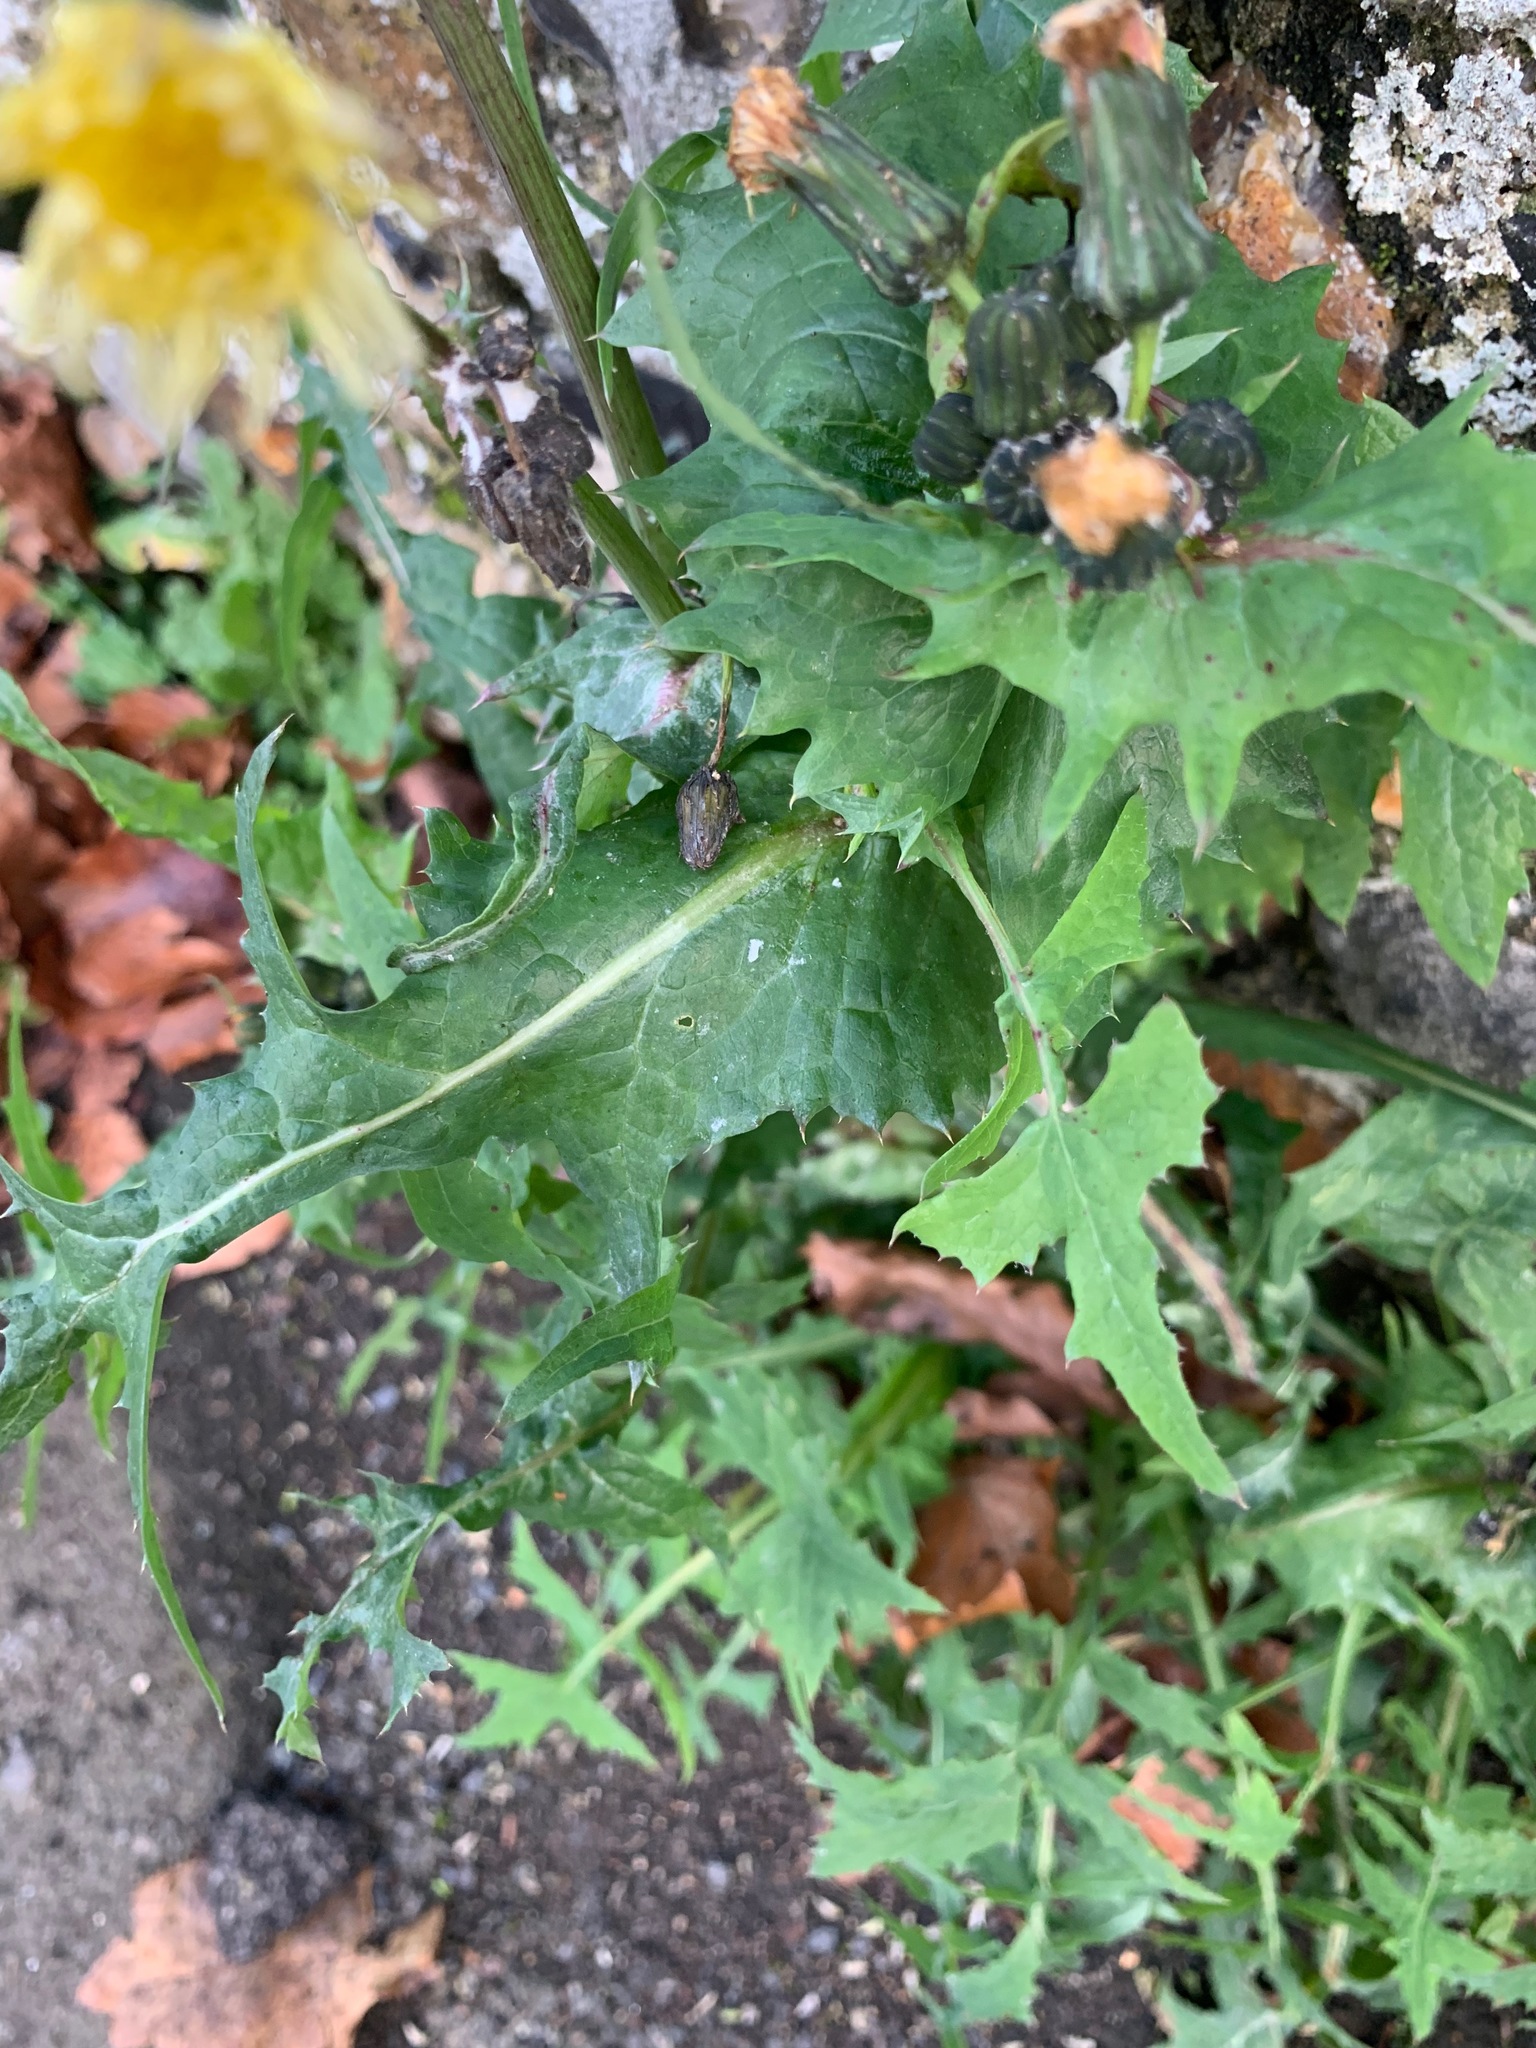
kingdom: Plantae
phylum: Tracheophyta
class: Magnoliopsida
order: Asterales
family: Asteraceae
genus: Sonchus
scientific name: Sonchus oleraceus
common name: Common sowthistle
